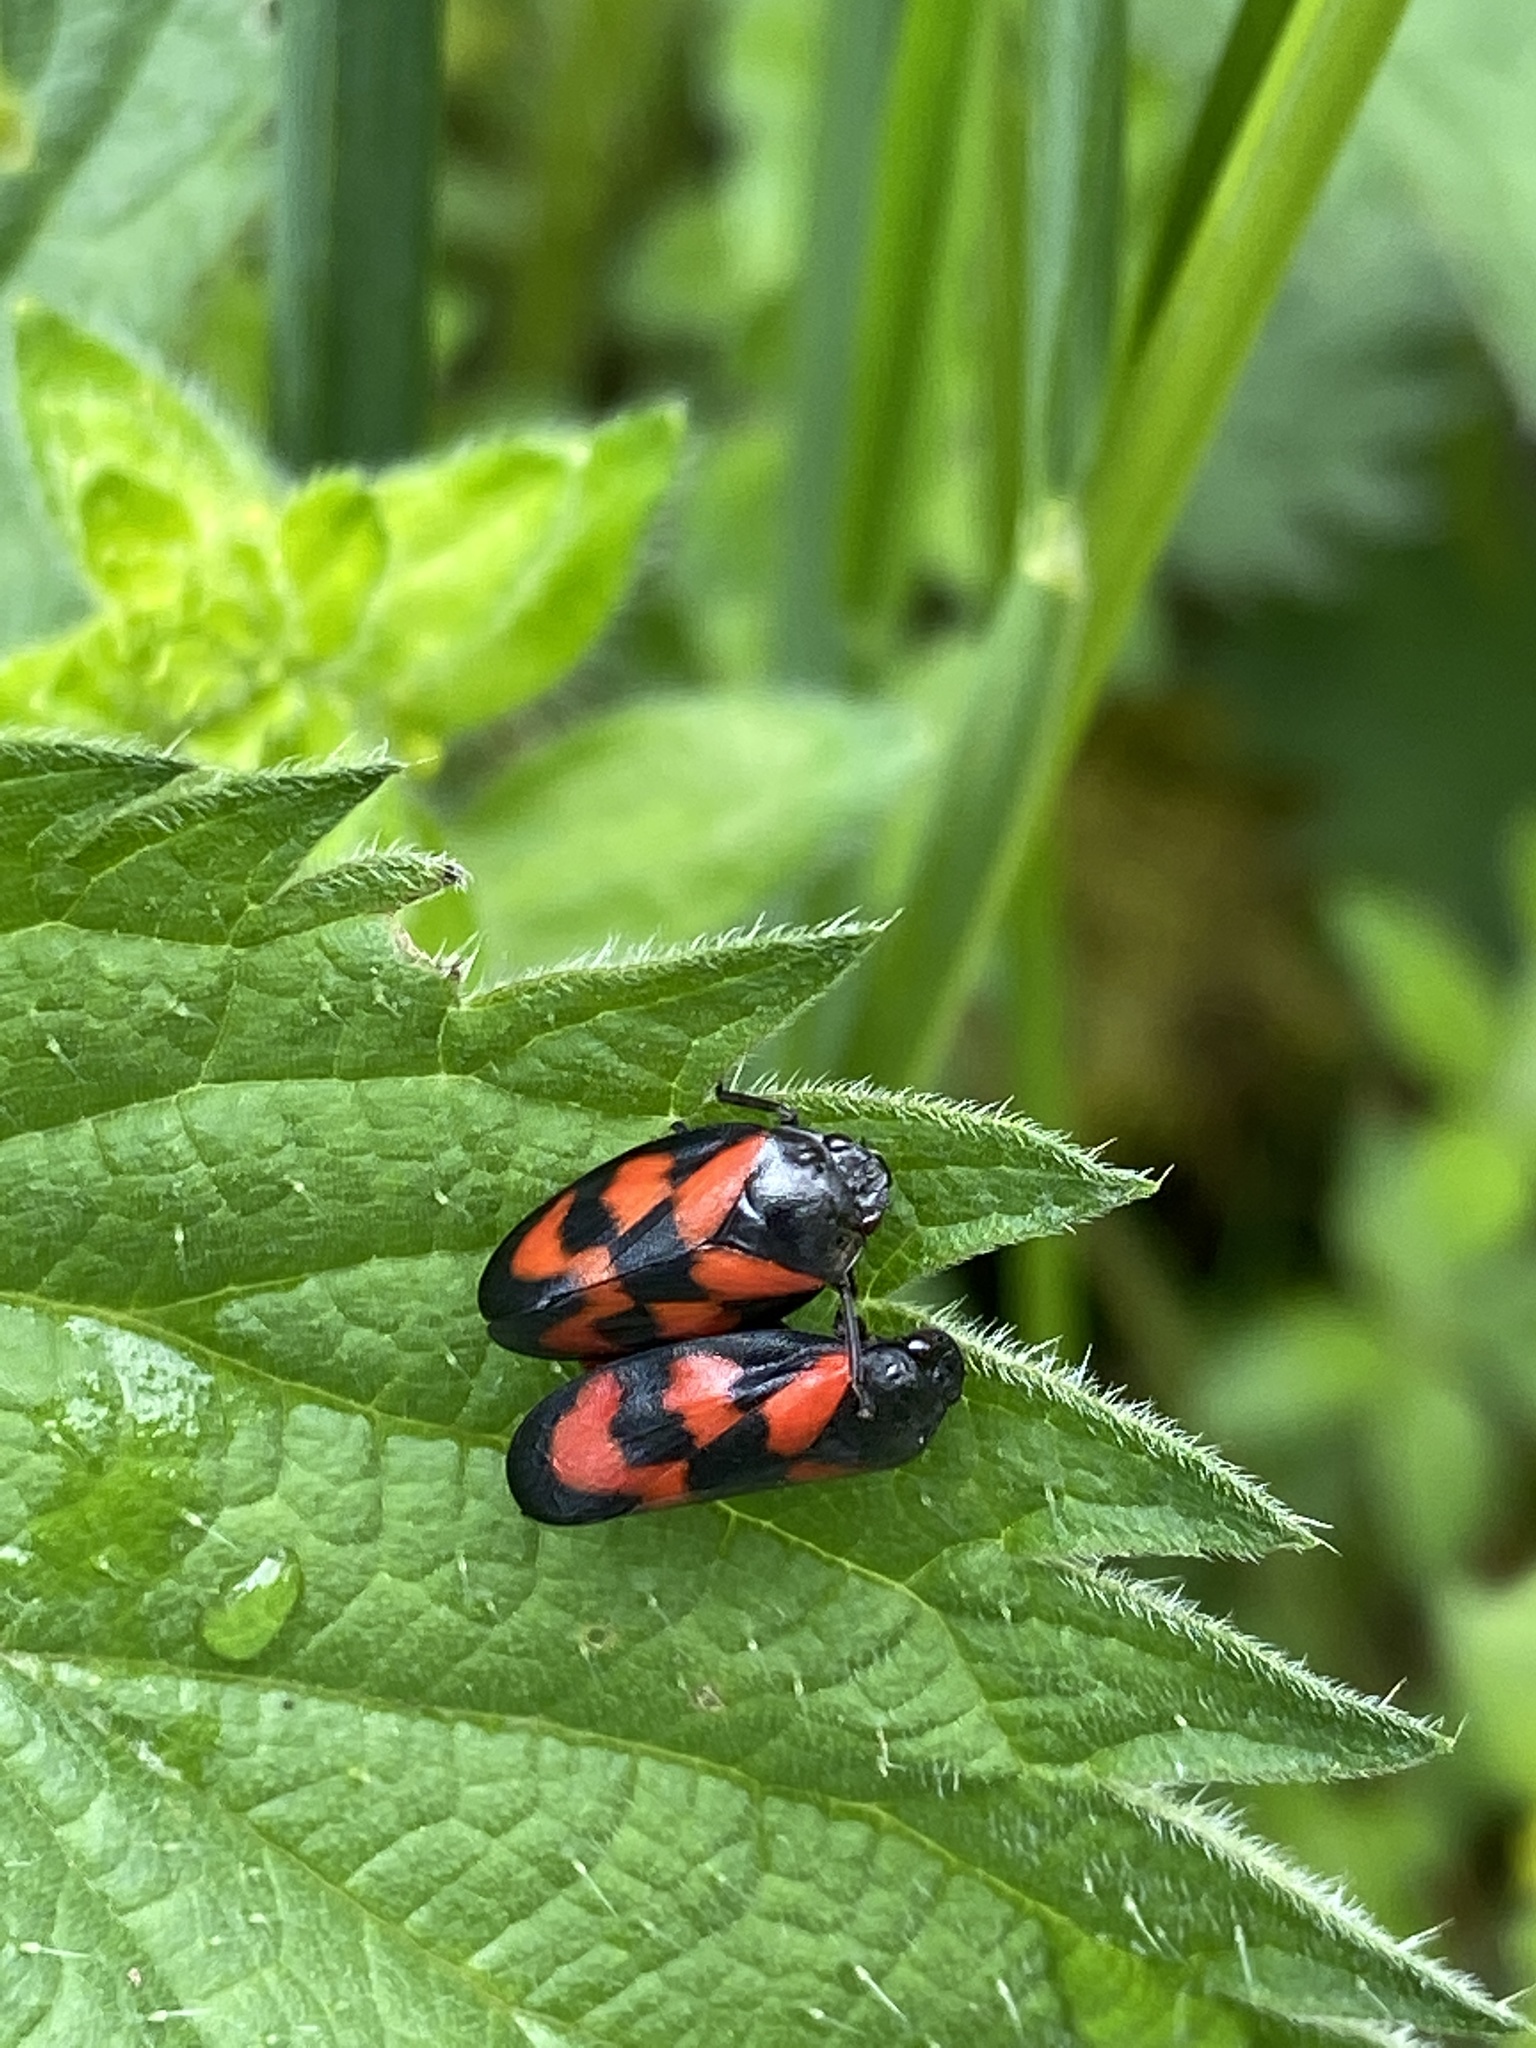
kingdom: Animalia
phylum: Arthropoda
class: Insecta
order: Hemiptera
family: Cercopidae
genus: Cercopis
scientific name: Cercopis vulnerata
